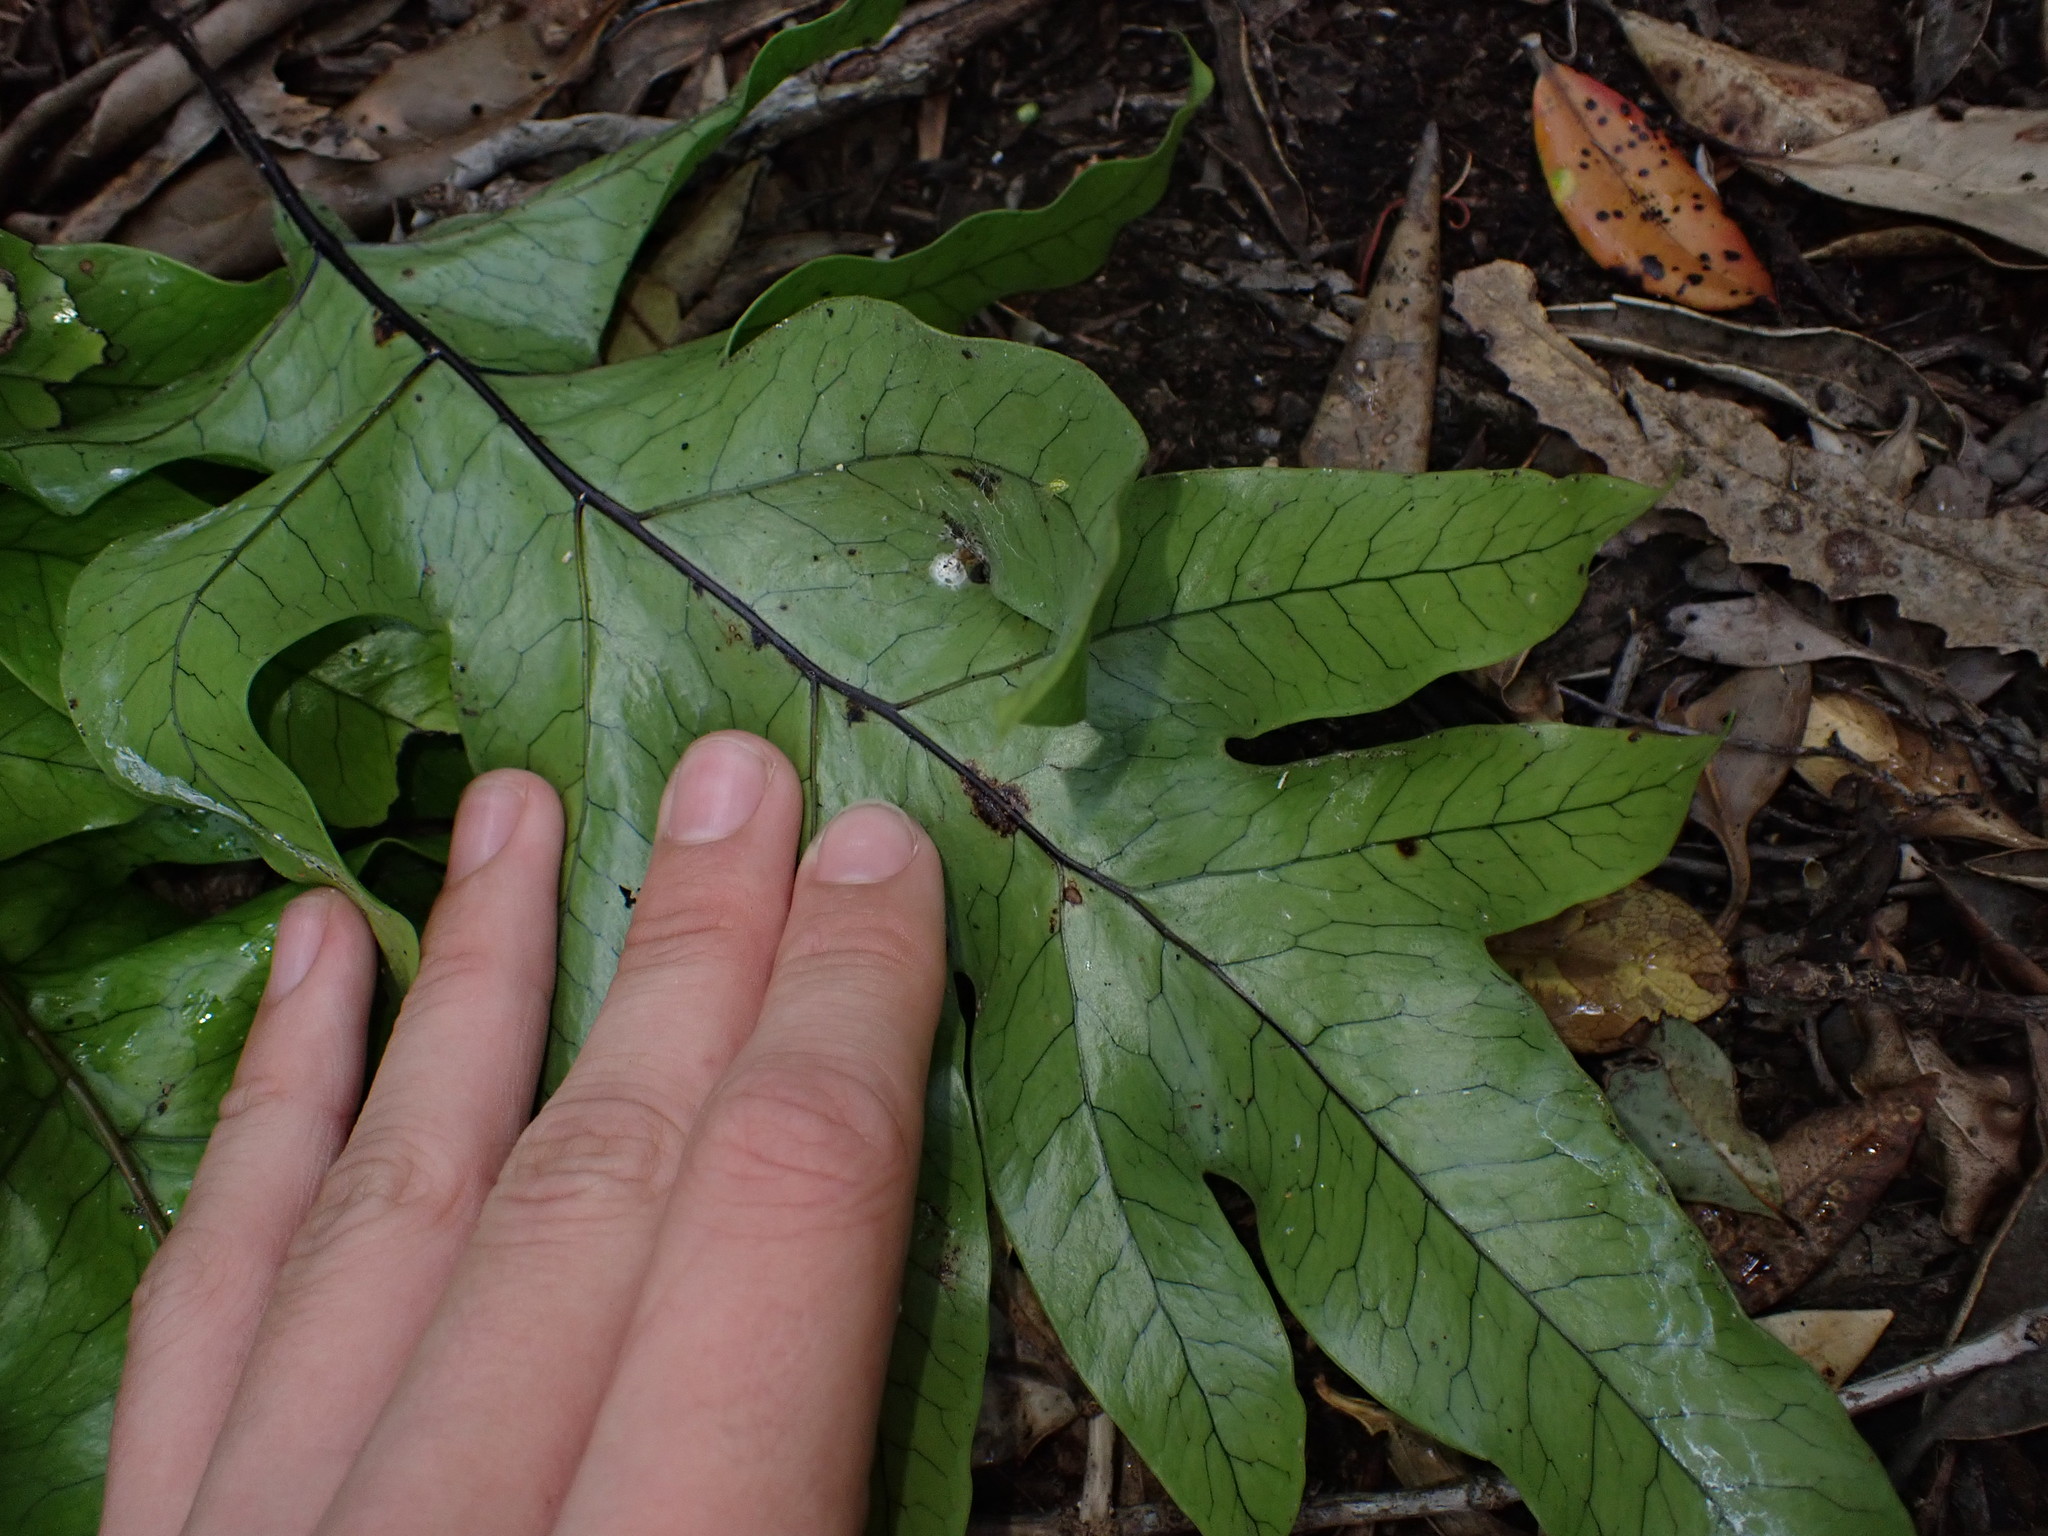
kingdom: Plantae
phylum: Tracheophyta
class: Polypodiopsida
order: Polypodiales
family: Polypodiaceae
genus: Lecanopteris
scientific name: Lecanopteris pustulata
